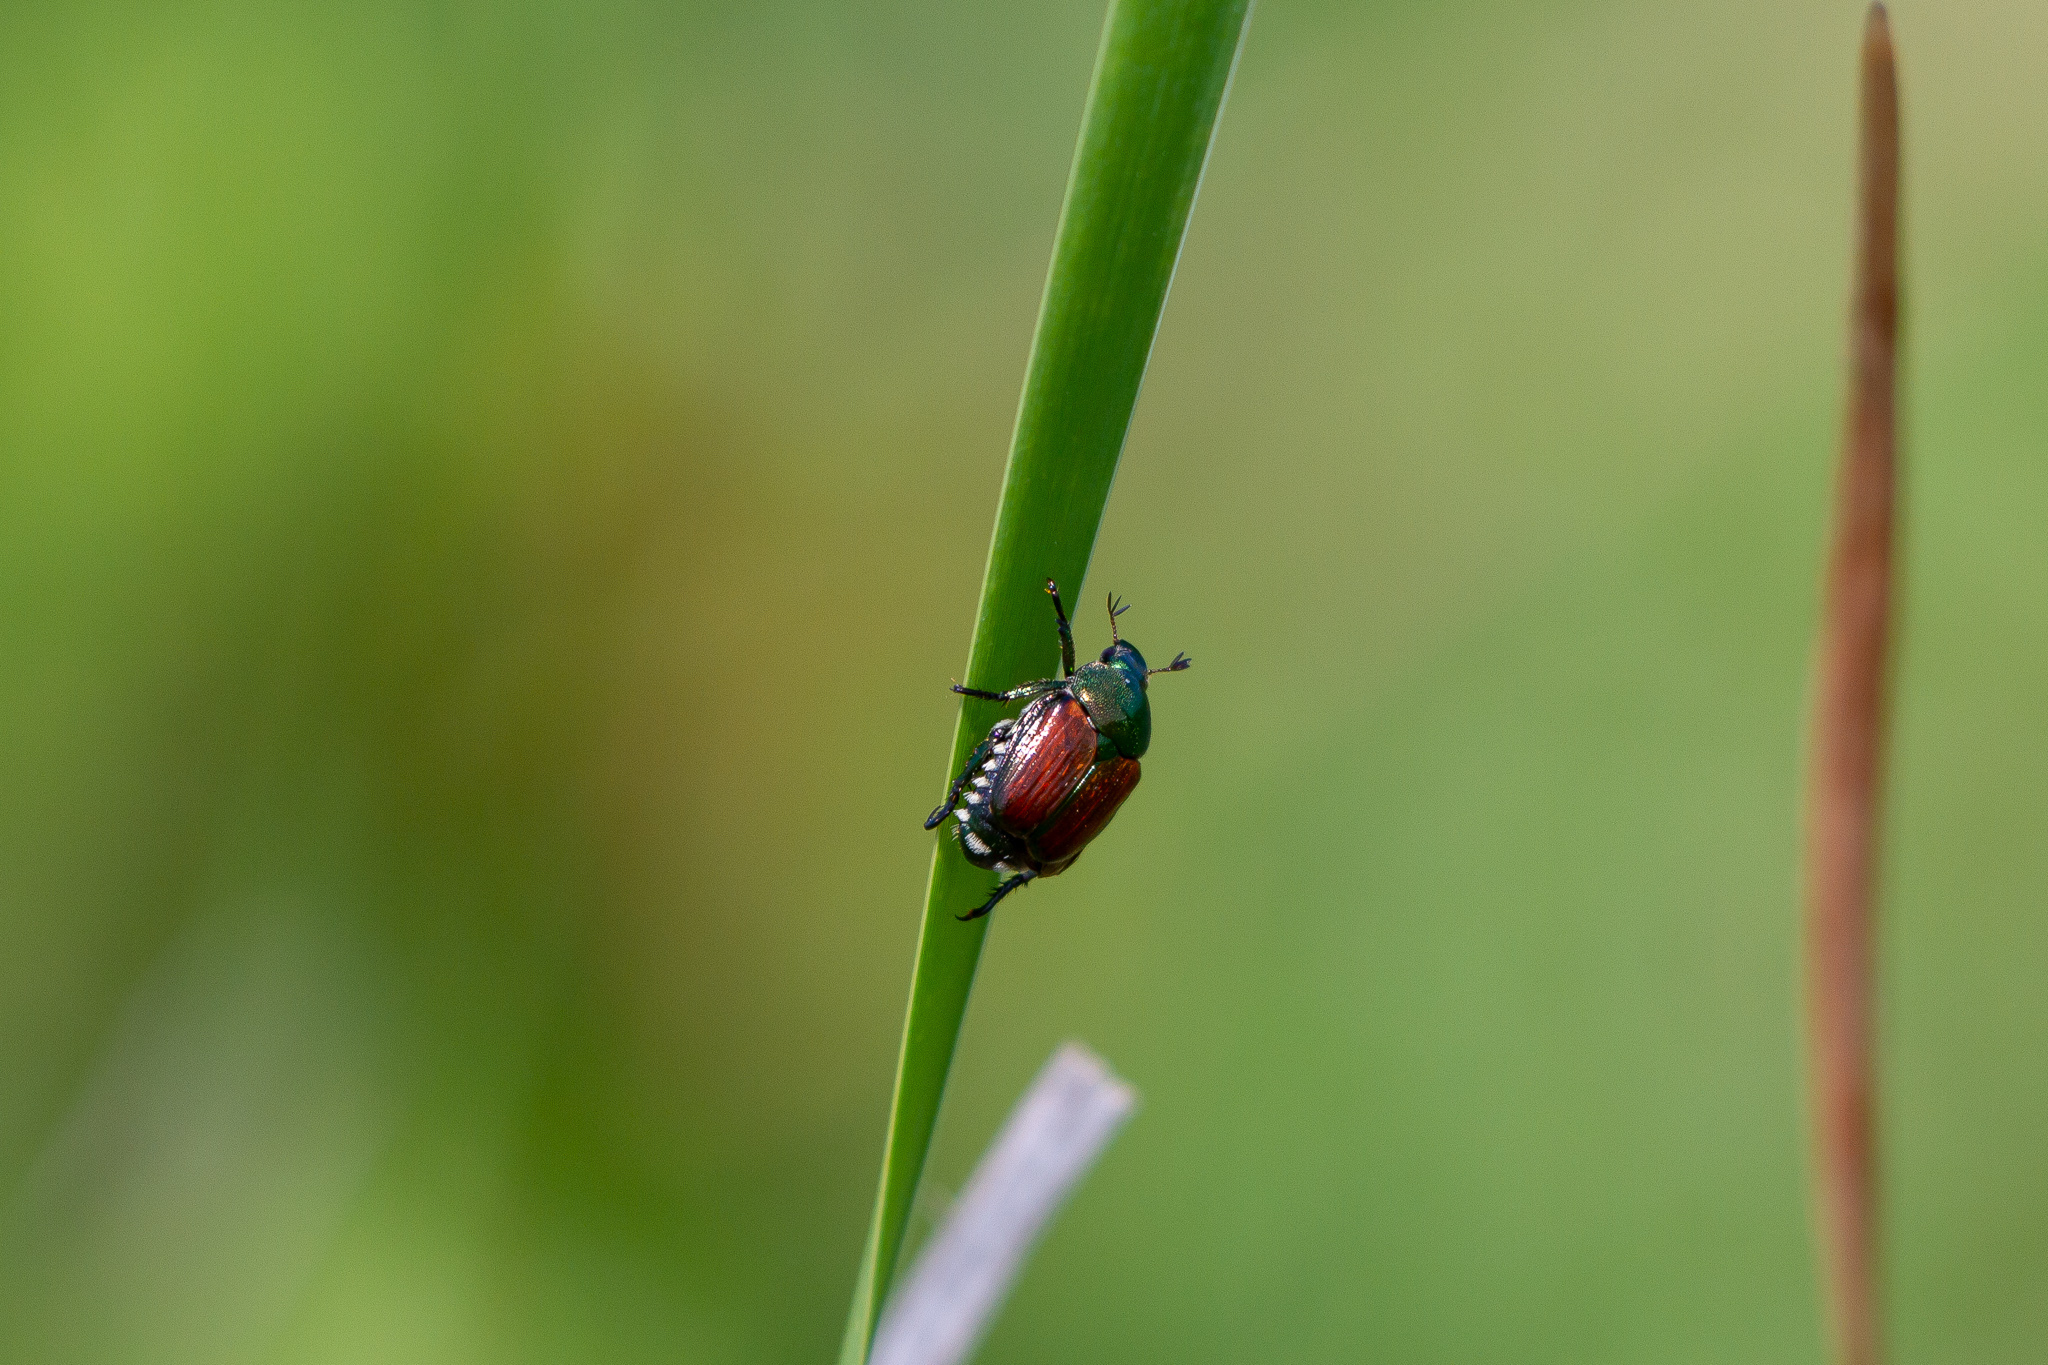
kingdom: Animalia
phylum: Arthropoda
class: Insecta
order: Coleoptera
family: Scarabaeidae
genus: Popillia
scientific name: Popillia japonica
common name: Japanese beetle
